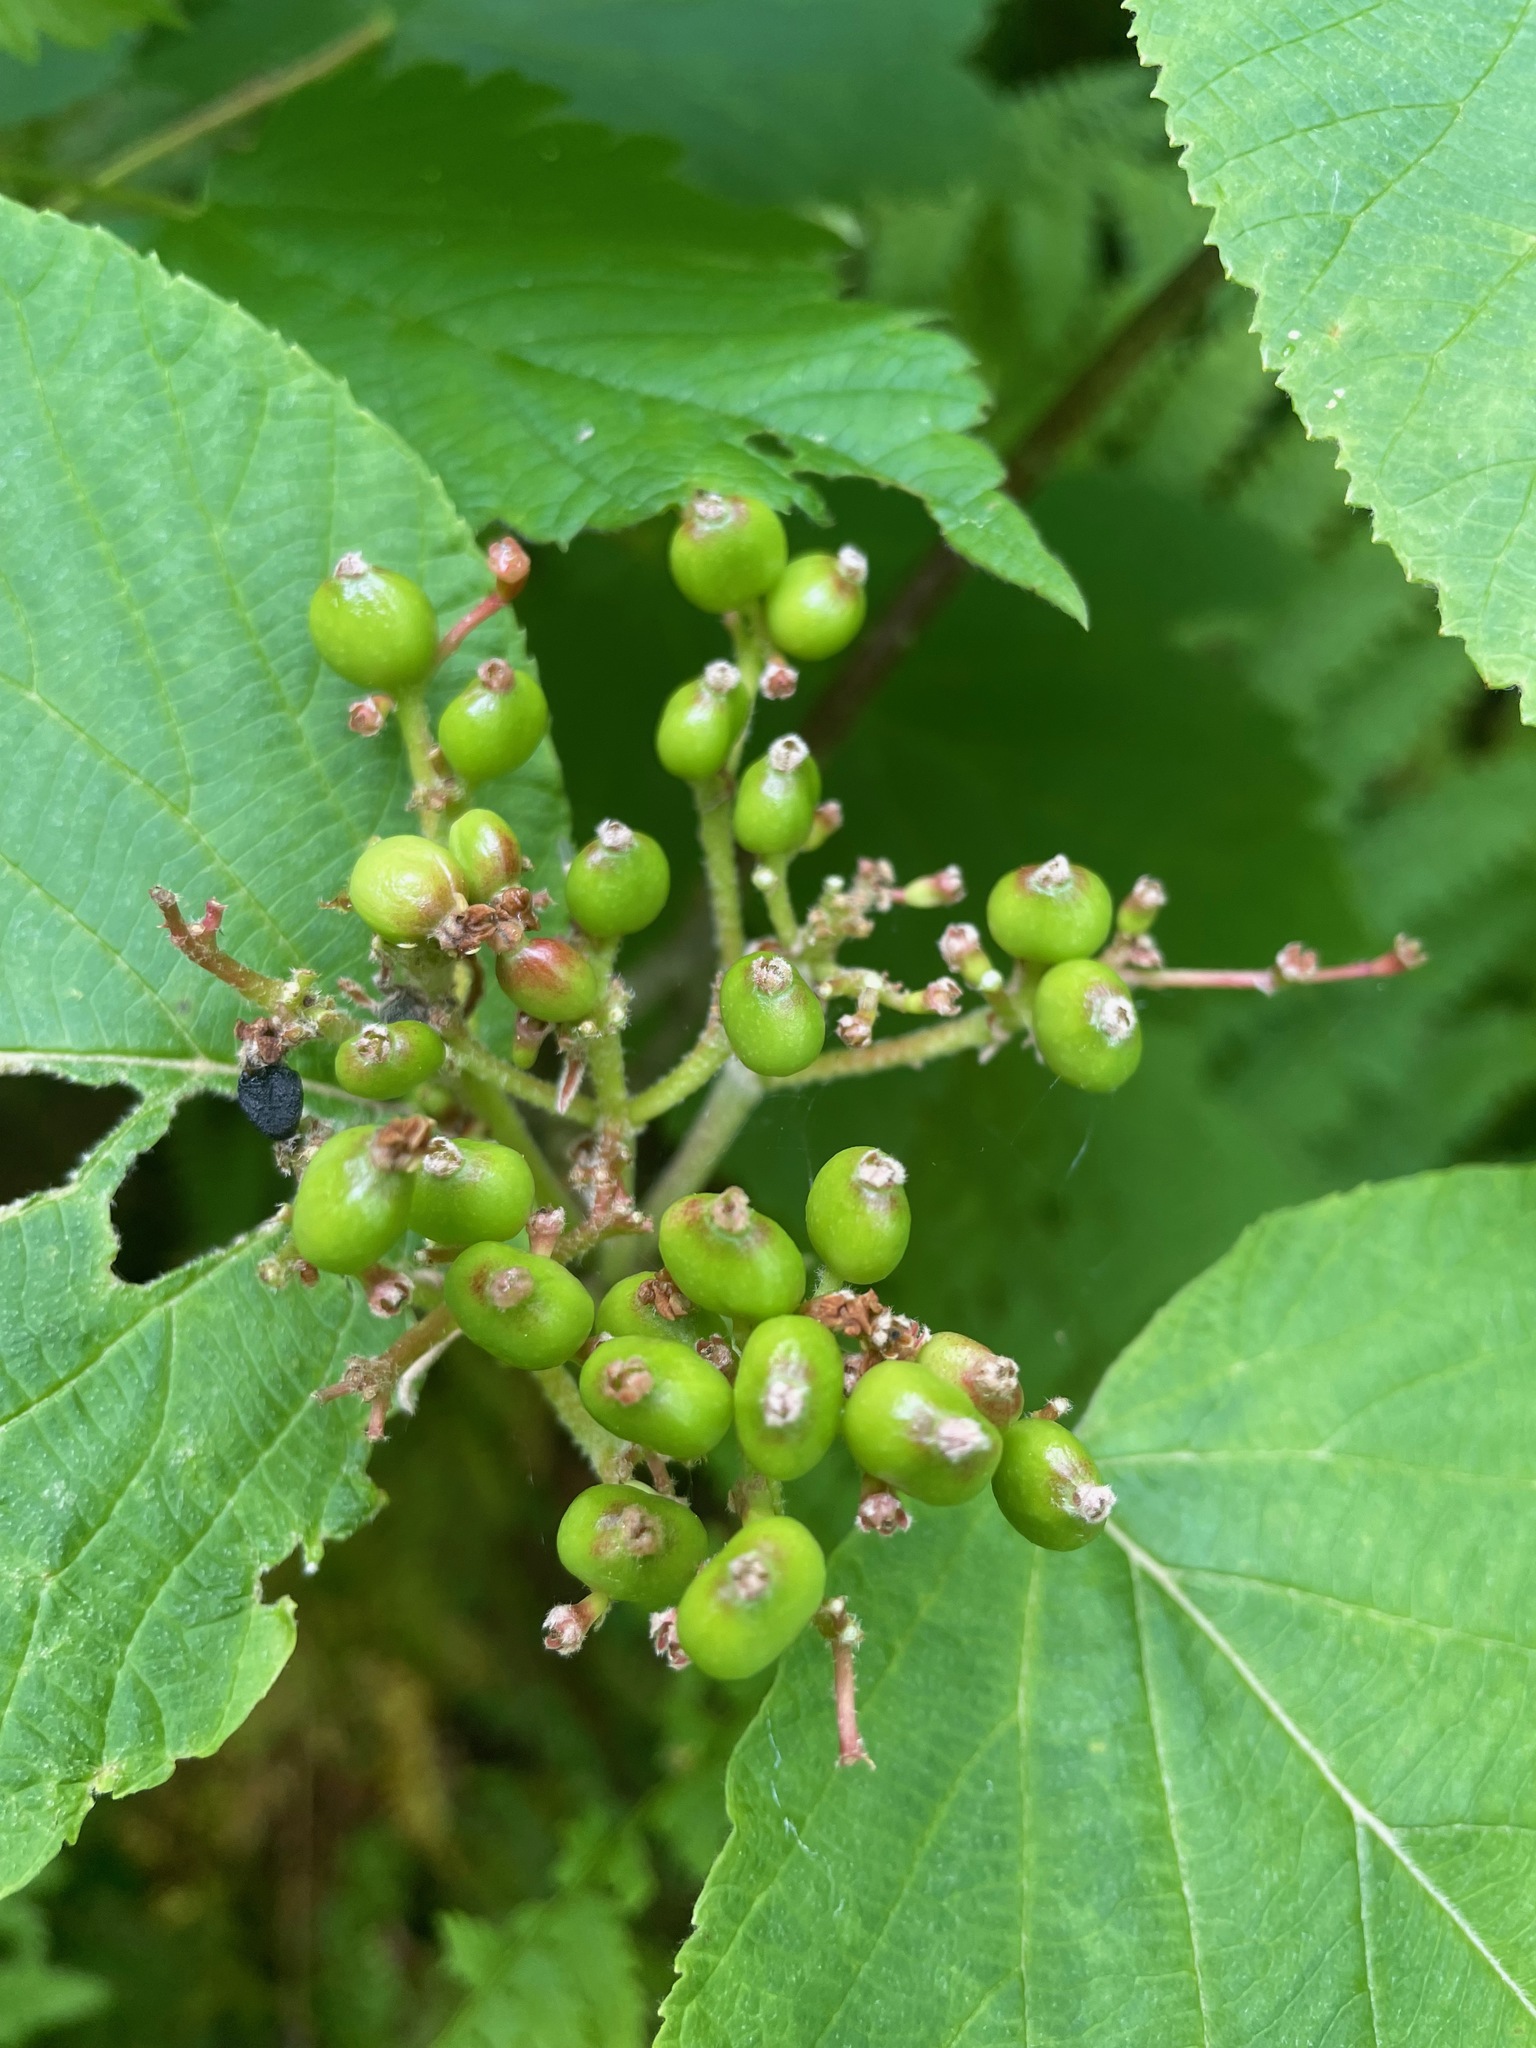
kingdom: Plantae
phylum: Tracheophyta
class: Magnoliopsida
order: Dipsacales
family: Viburnaceae
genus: Viburnum
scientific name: Viburnum lantanoides
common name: Hobblebush
